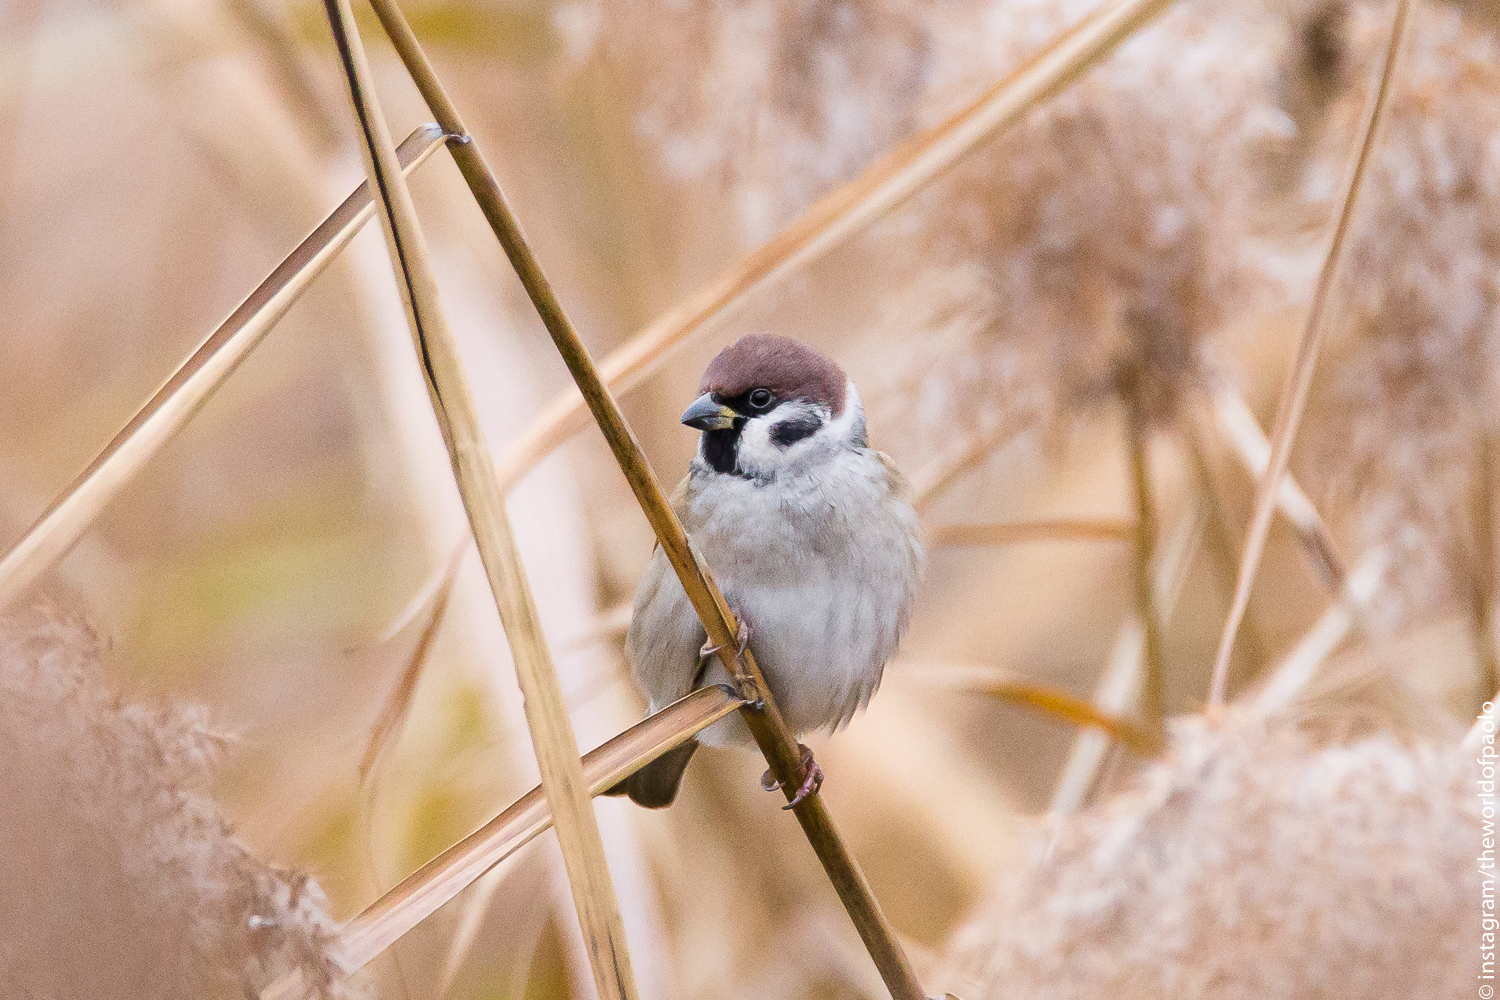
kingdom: Animalia
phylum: Chordata
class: Aves
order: Passeriformes
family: Passeridae
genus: Passer
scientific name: Passer montanus
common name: Eurasian tree sparrow
